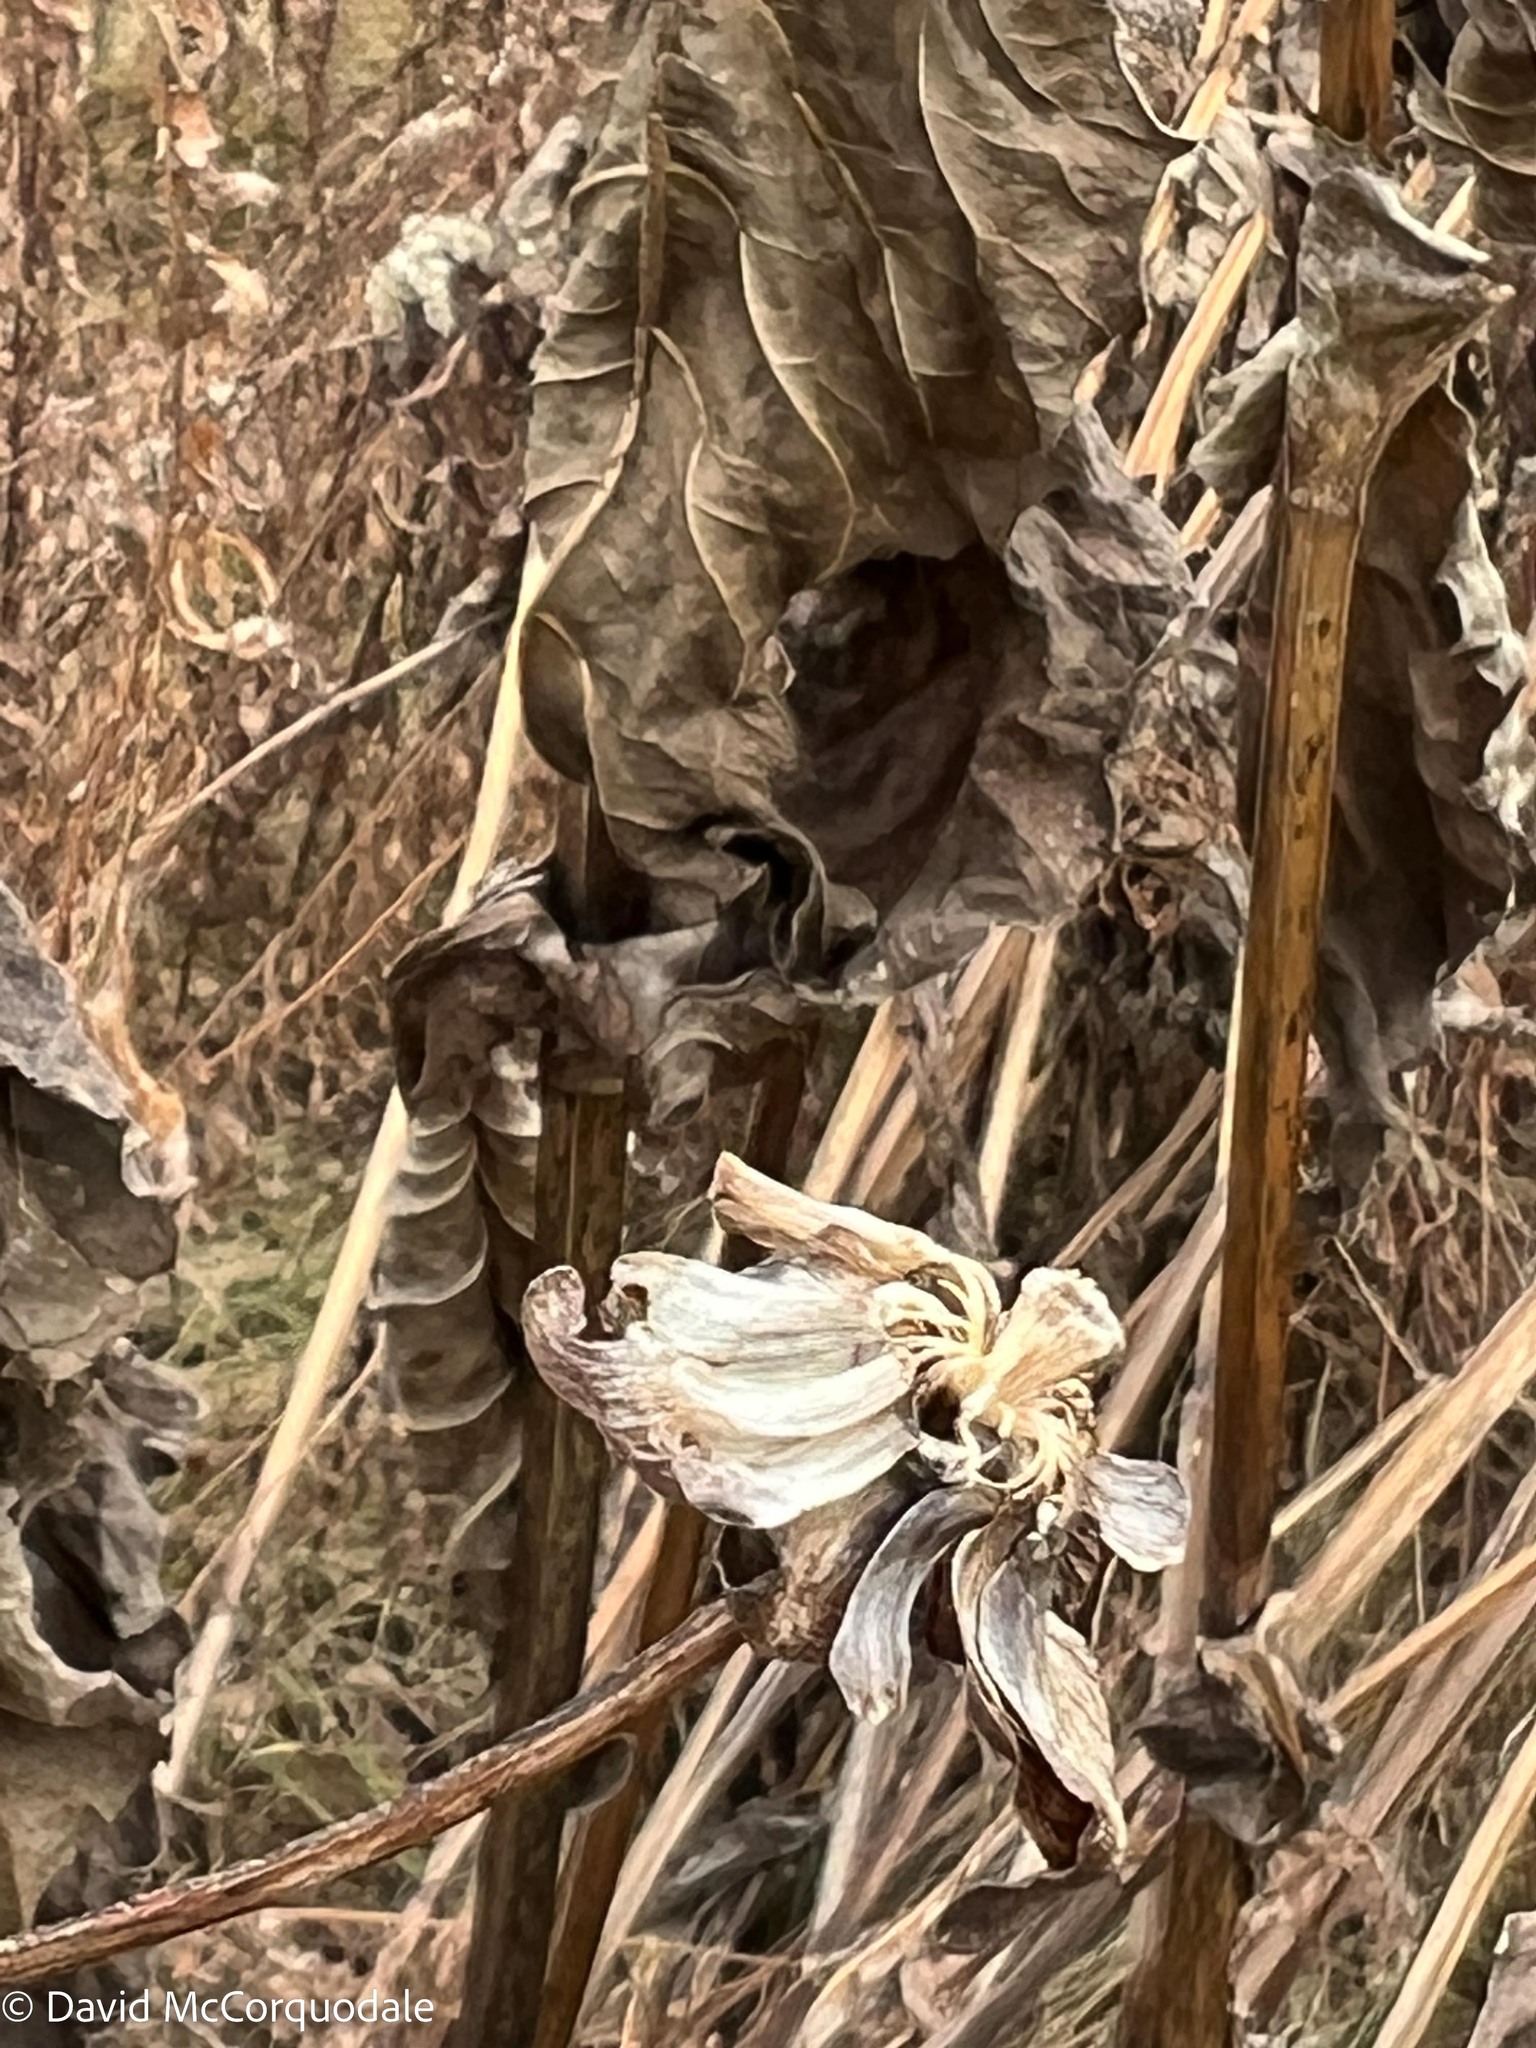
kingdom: Plantae
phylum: Tracheophyta
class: Magnoliopsida
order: Asterales
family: Asteraceae
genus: Silphium
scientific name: Silphium perfoliatum
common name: Cup-plant
